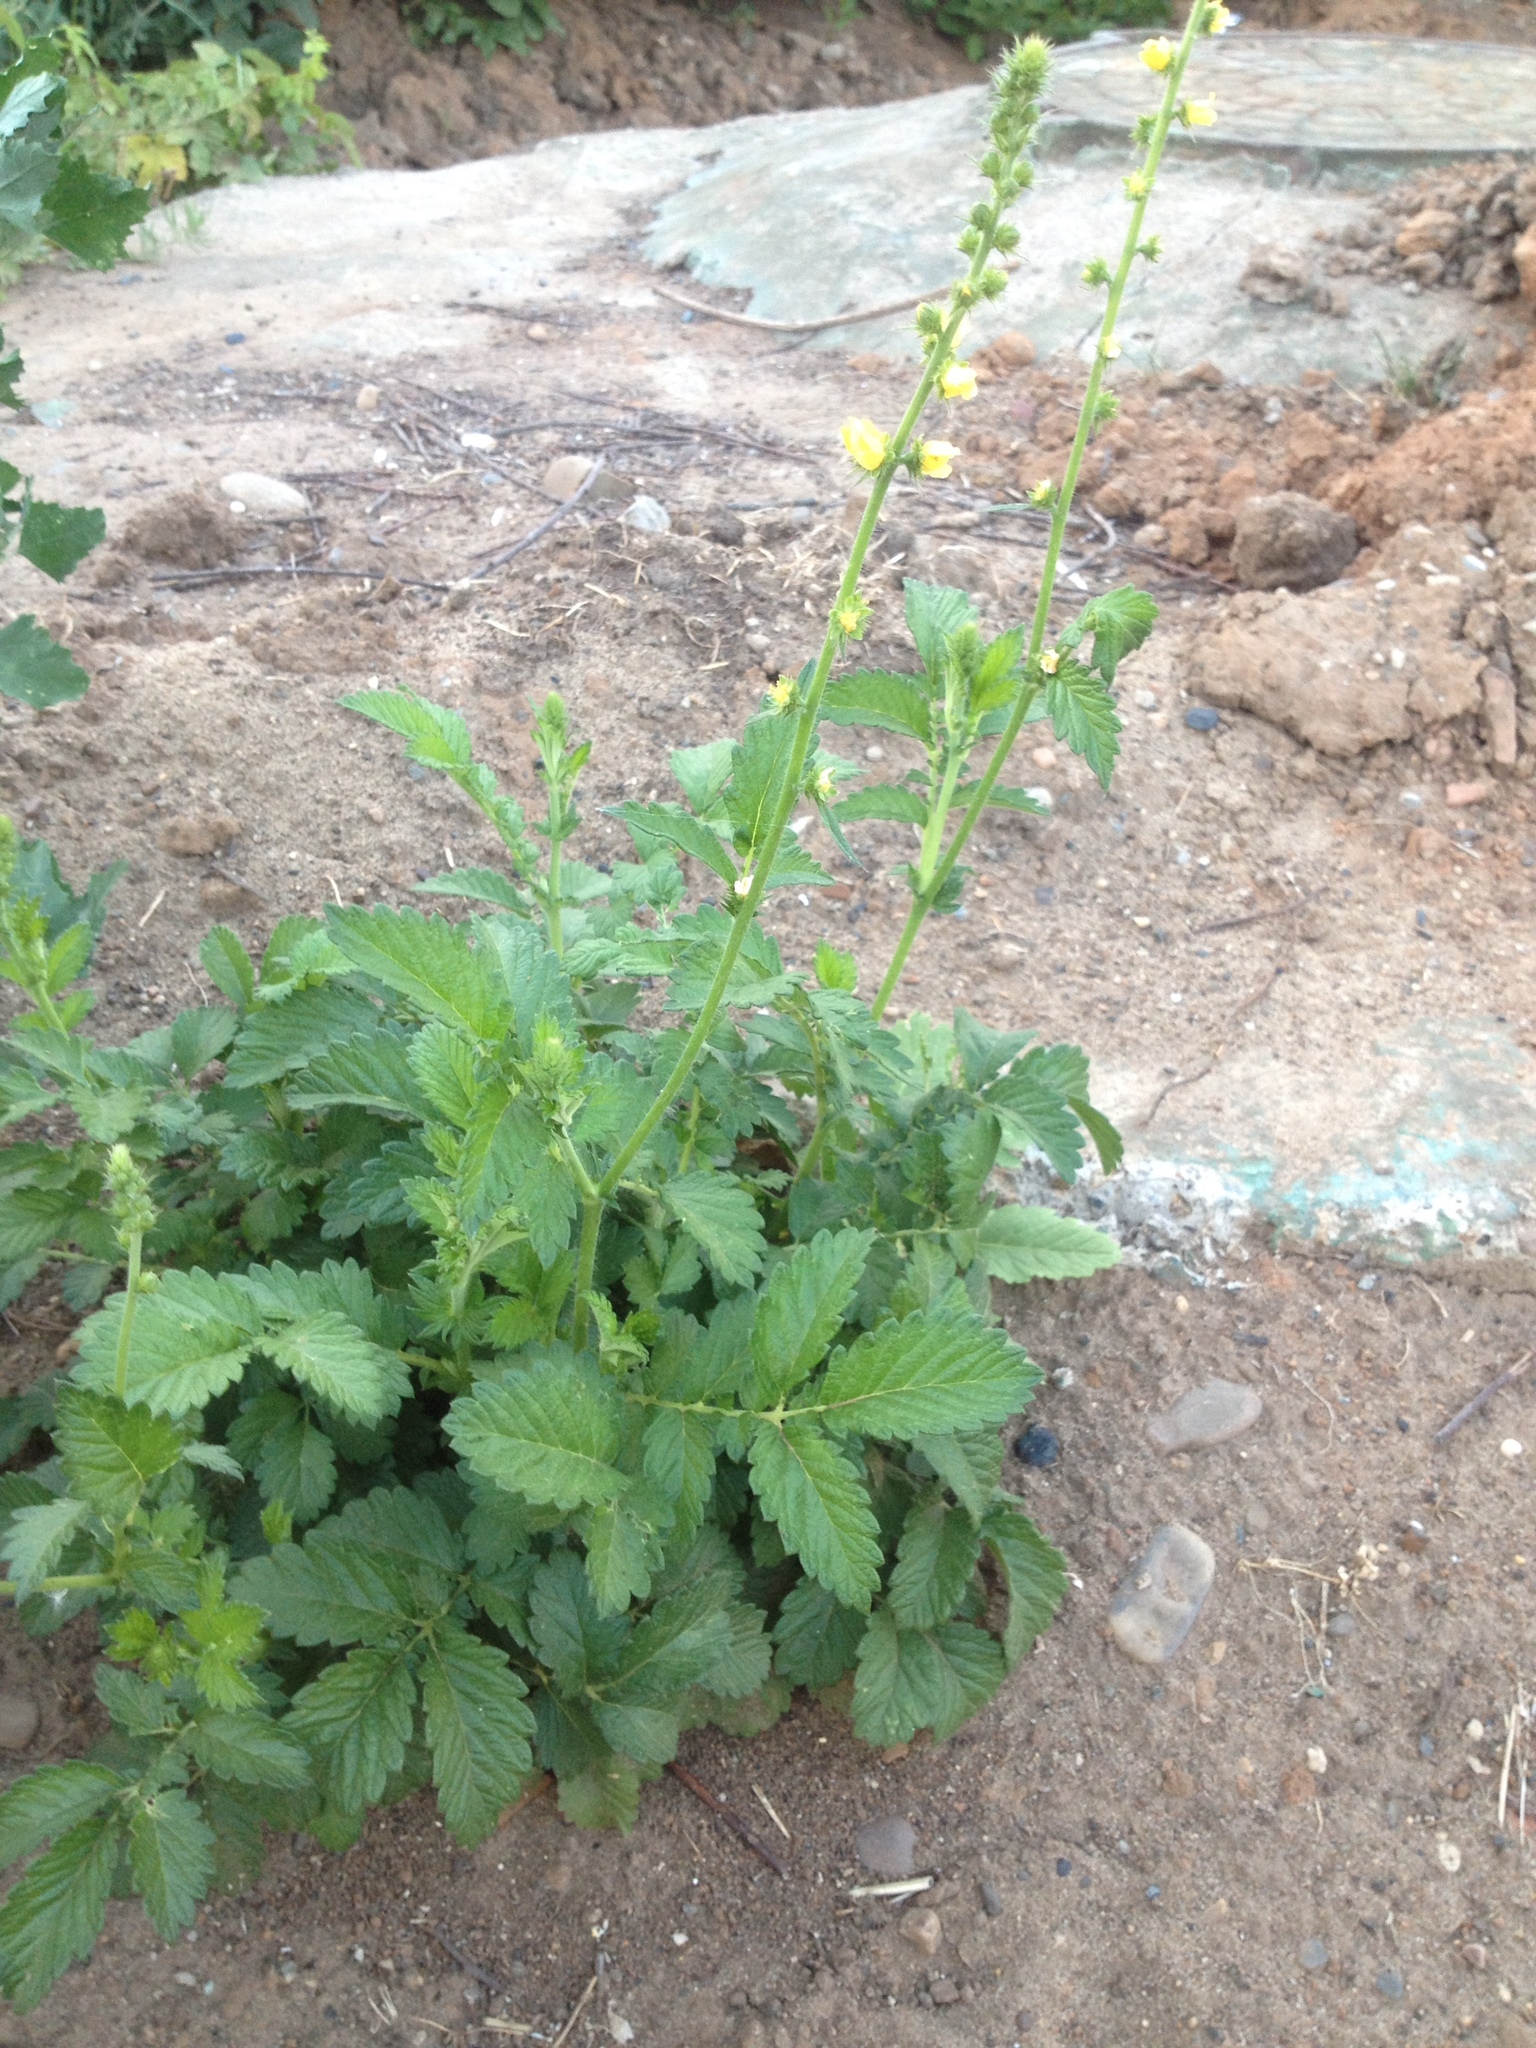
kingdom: Plantae
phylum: Tracheophyta
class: Magnoliopsida
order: Rosales
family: Rosaceae
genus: Agrimonia
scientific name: Agrimonia eupatoria
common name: Agrimony
